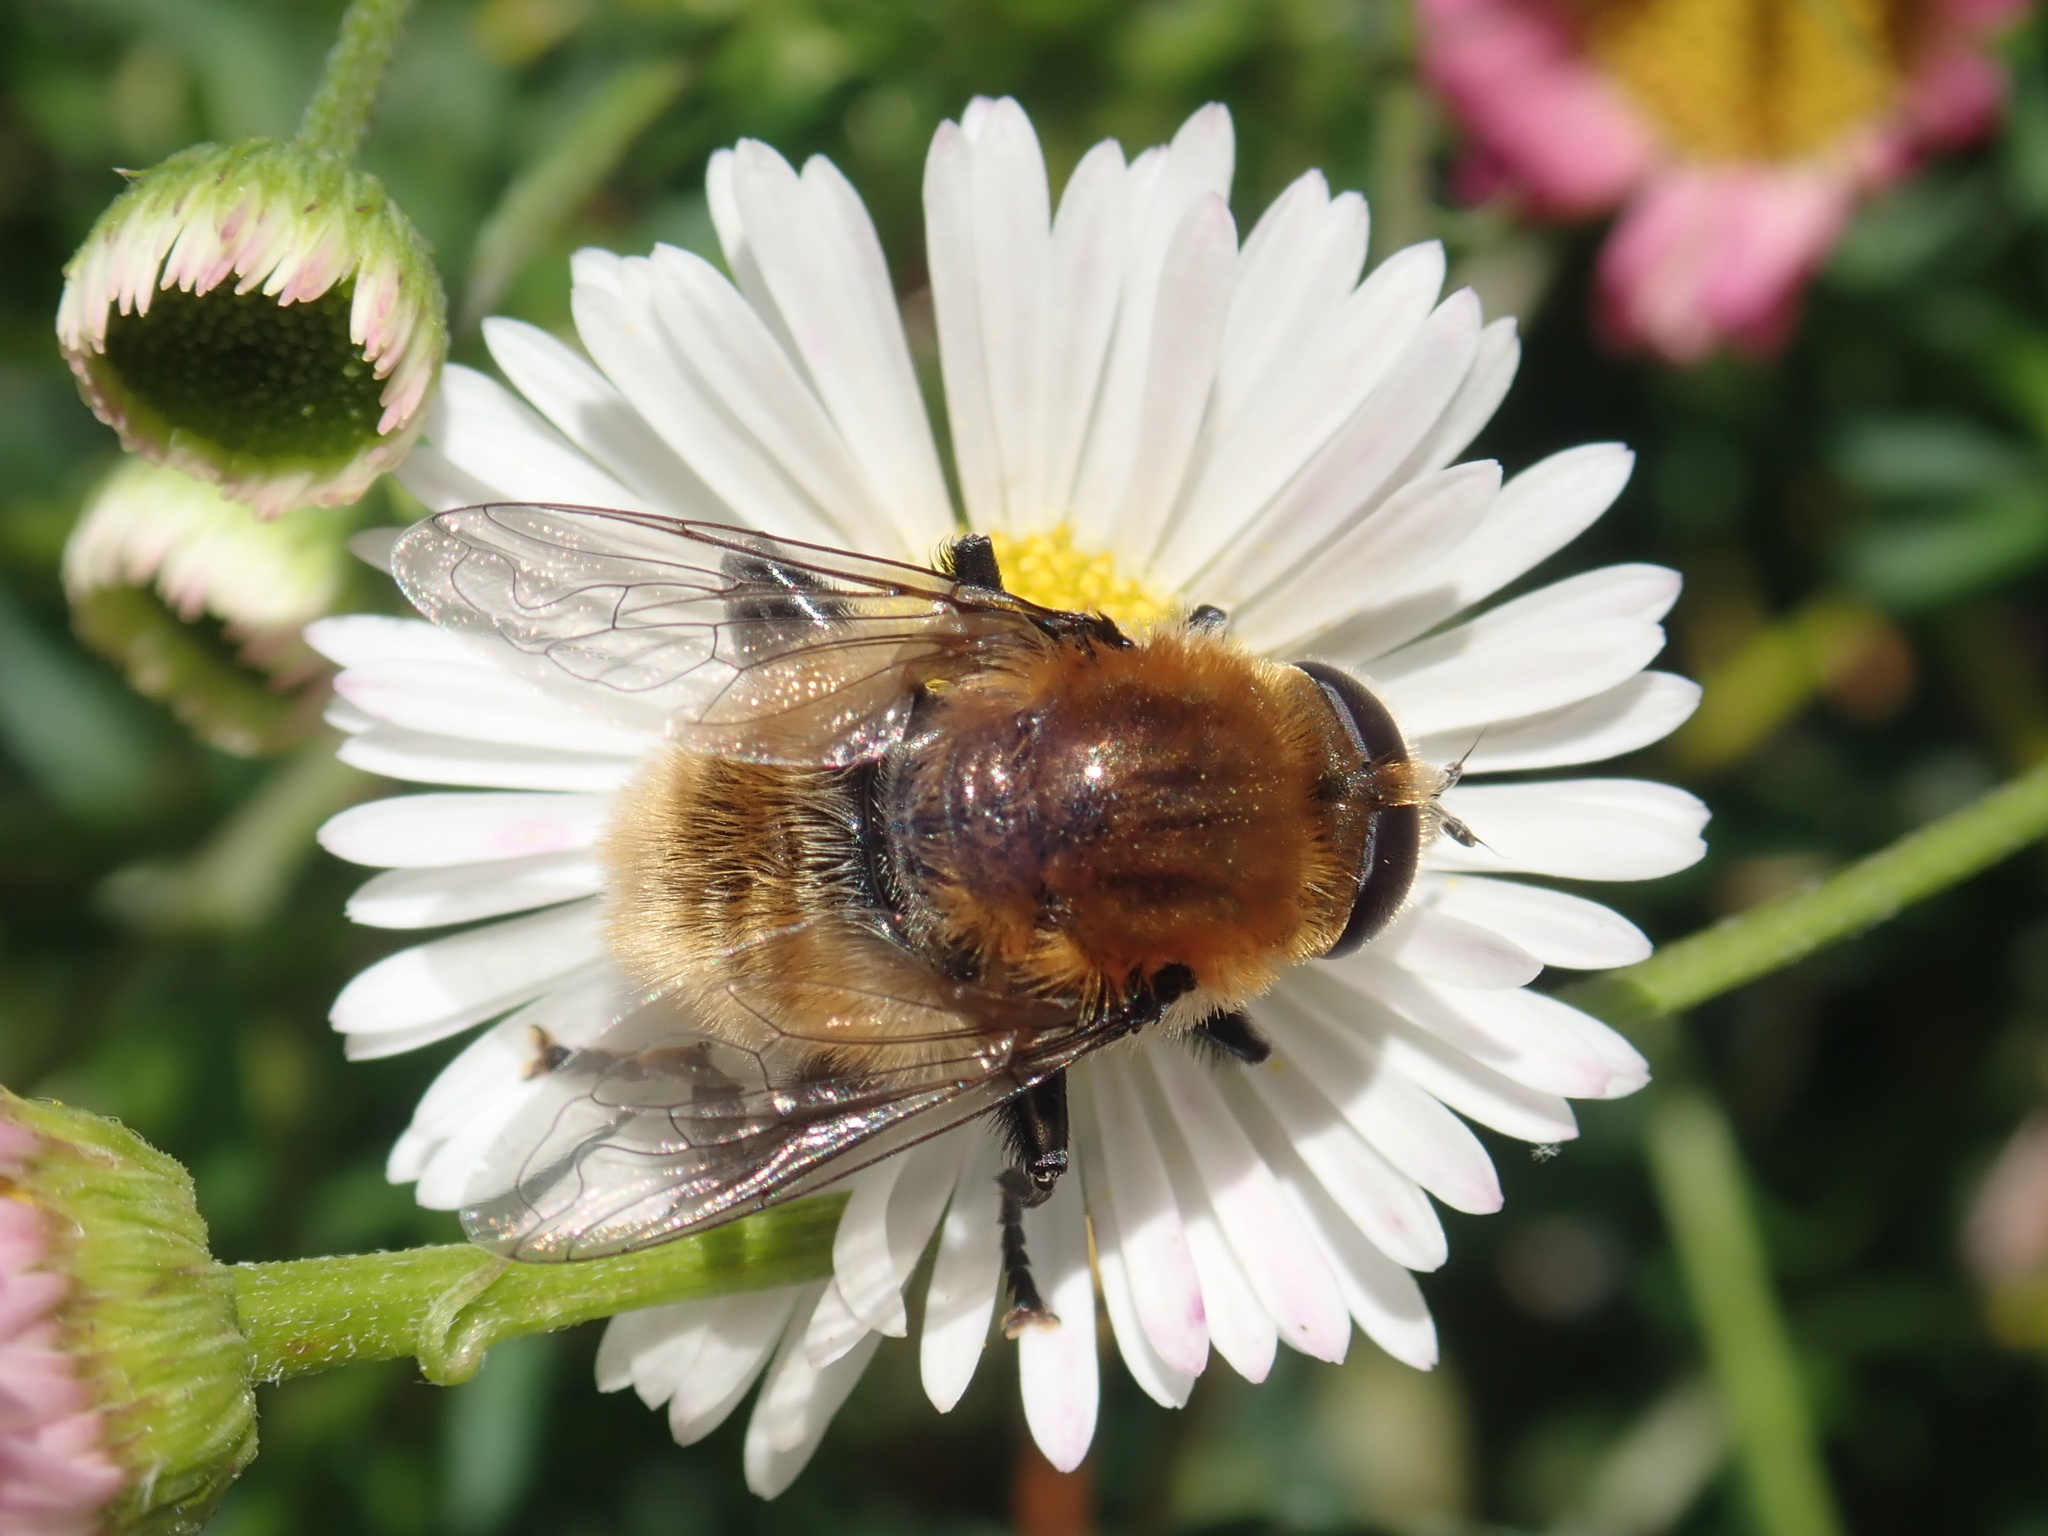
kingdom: Animalia
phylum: Arthropoda
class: Insecta
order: Diptera
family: Syrphidae
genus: Merodon
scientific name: Merodon equestris
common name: Greater bulb-fly
